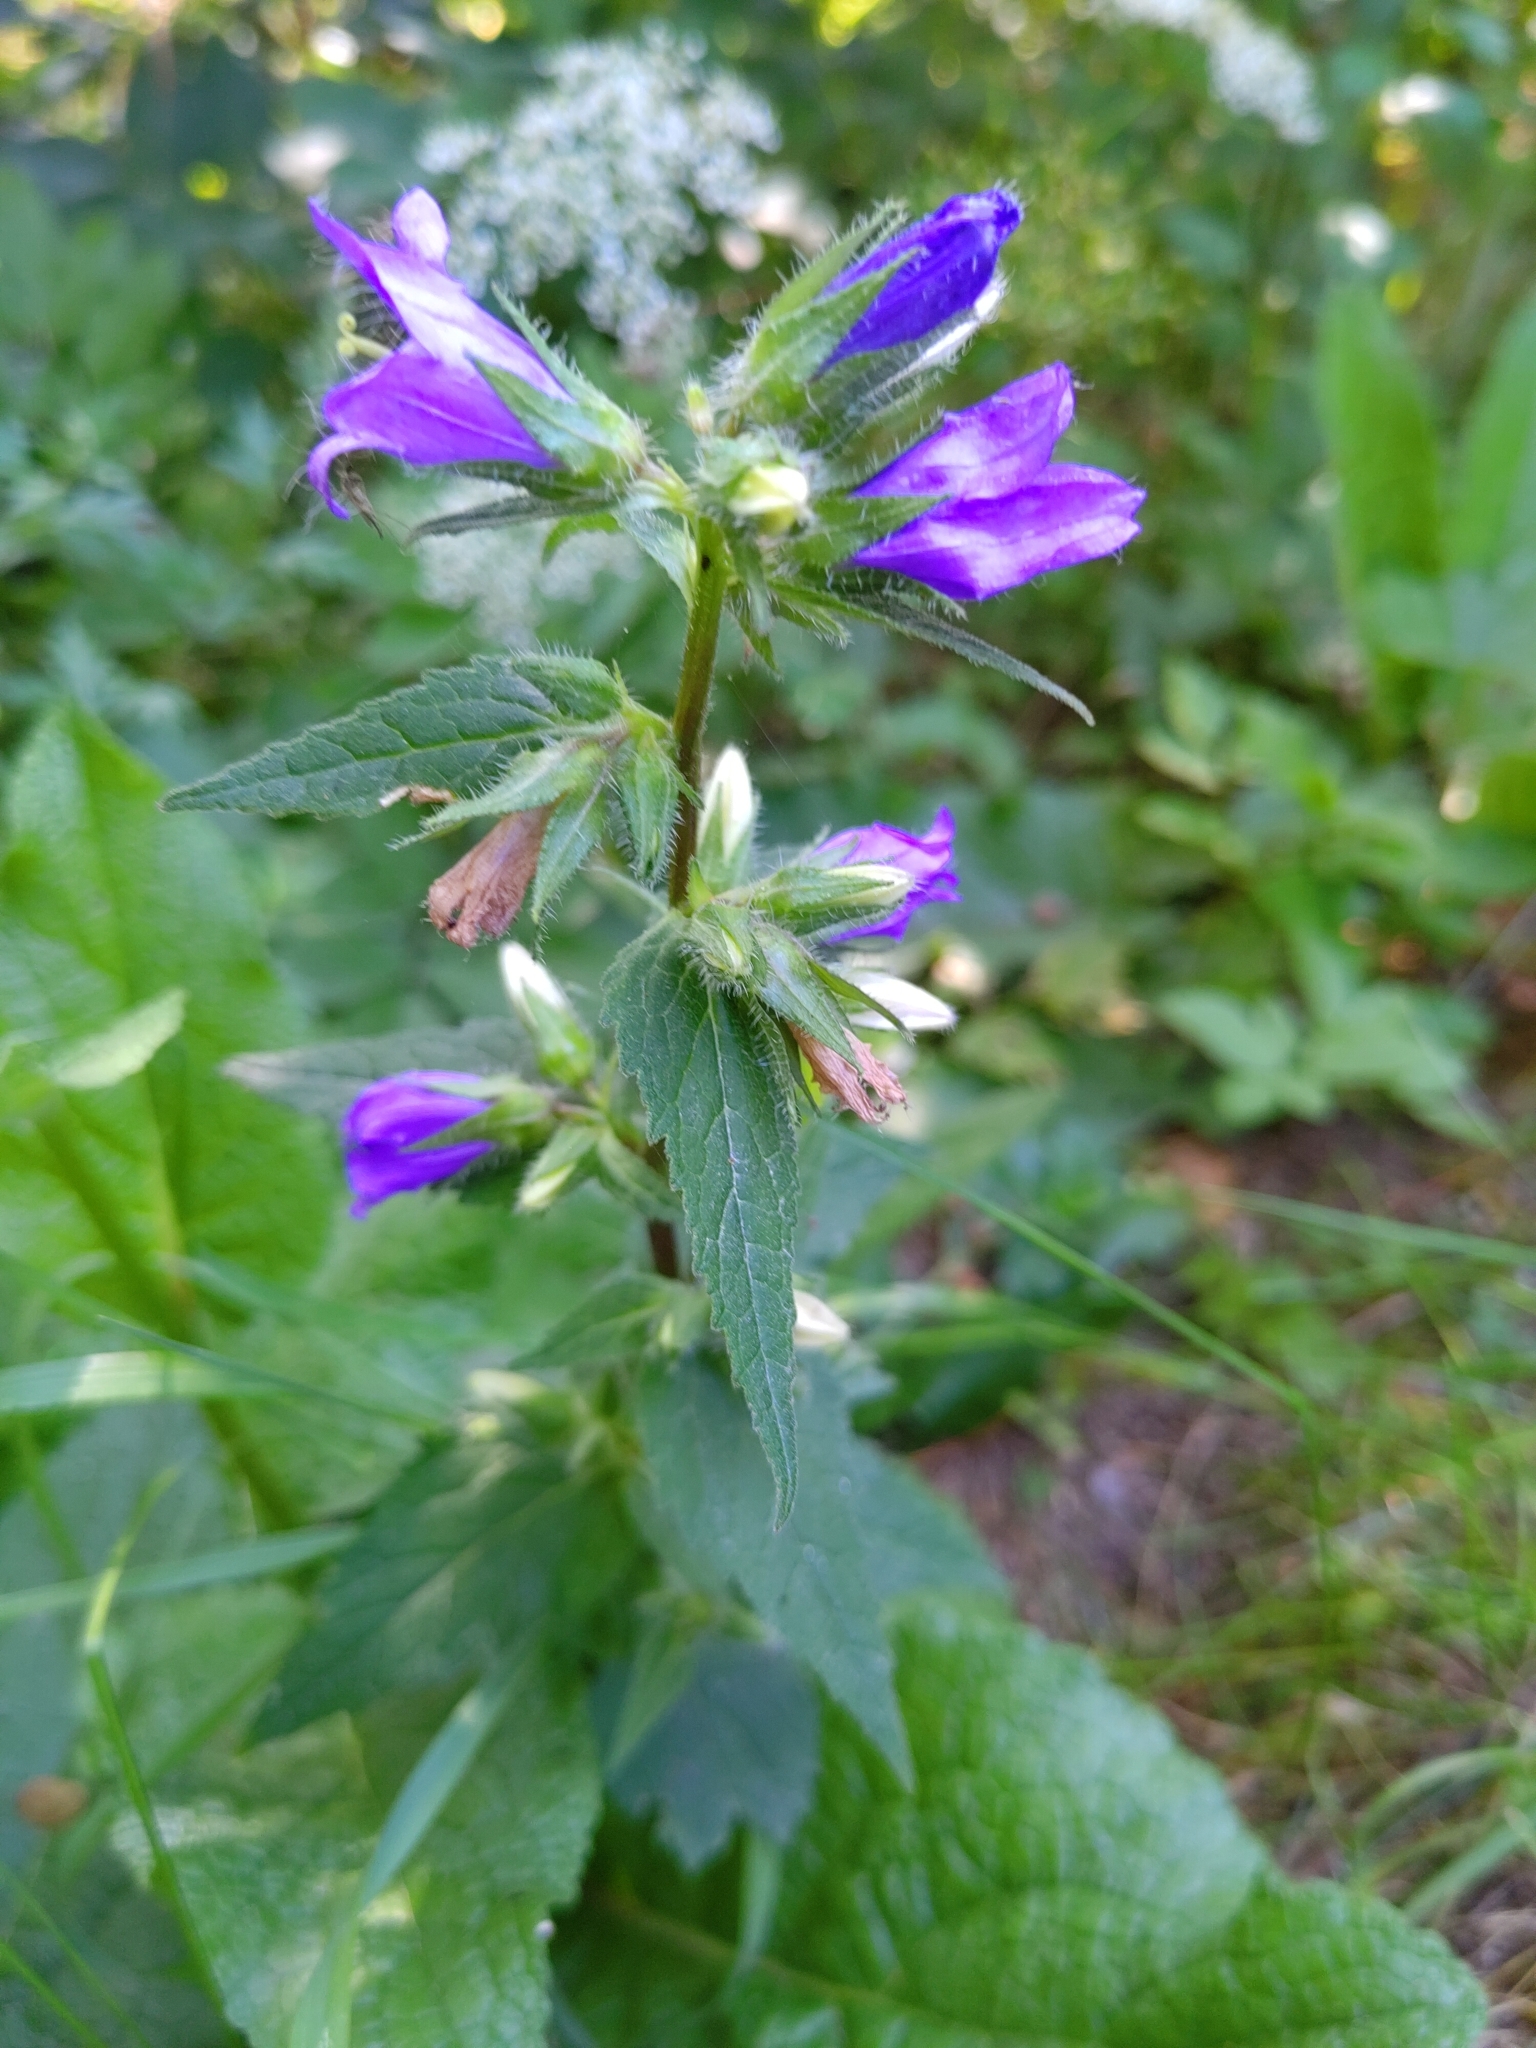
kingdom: Plantae
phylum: Tracheophyta
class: Magnoliopsida
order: Asterales
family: Campanulaceae
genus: Campanula
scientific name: Campanula trachelium
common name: Nettle-leaved bellflower
